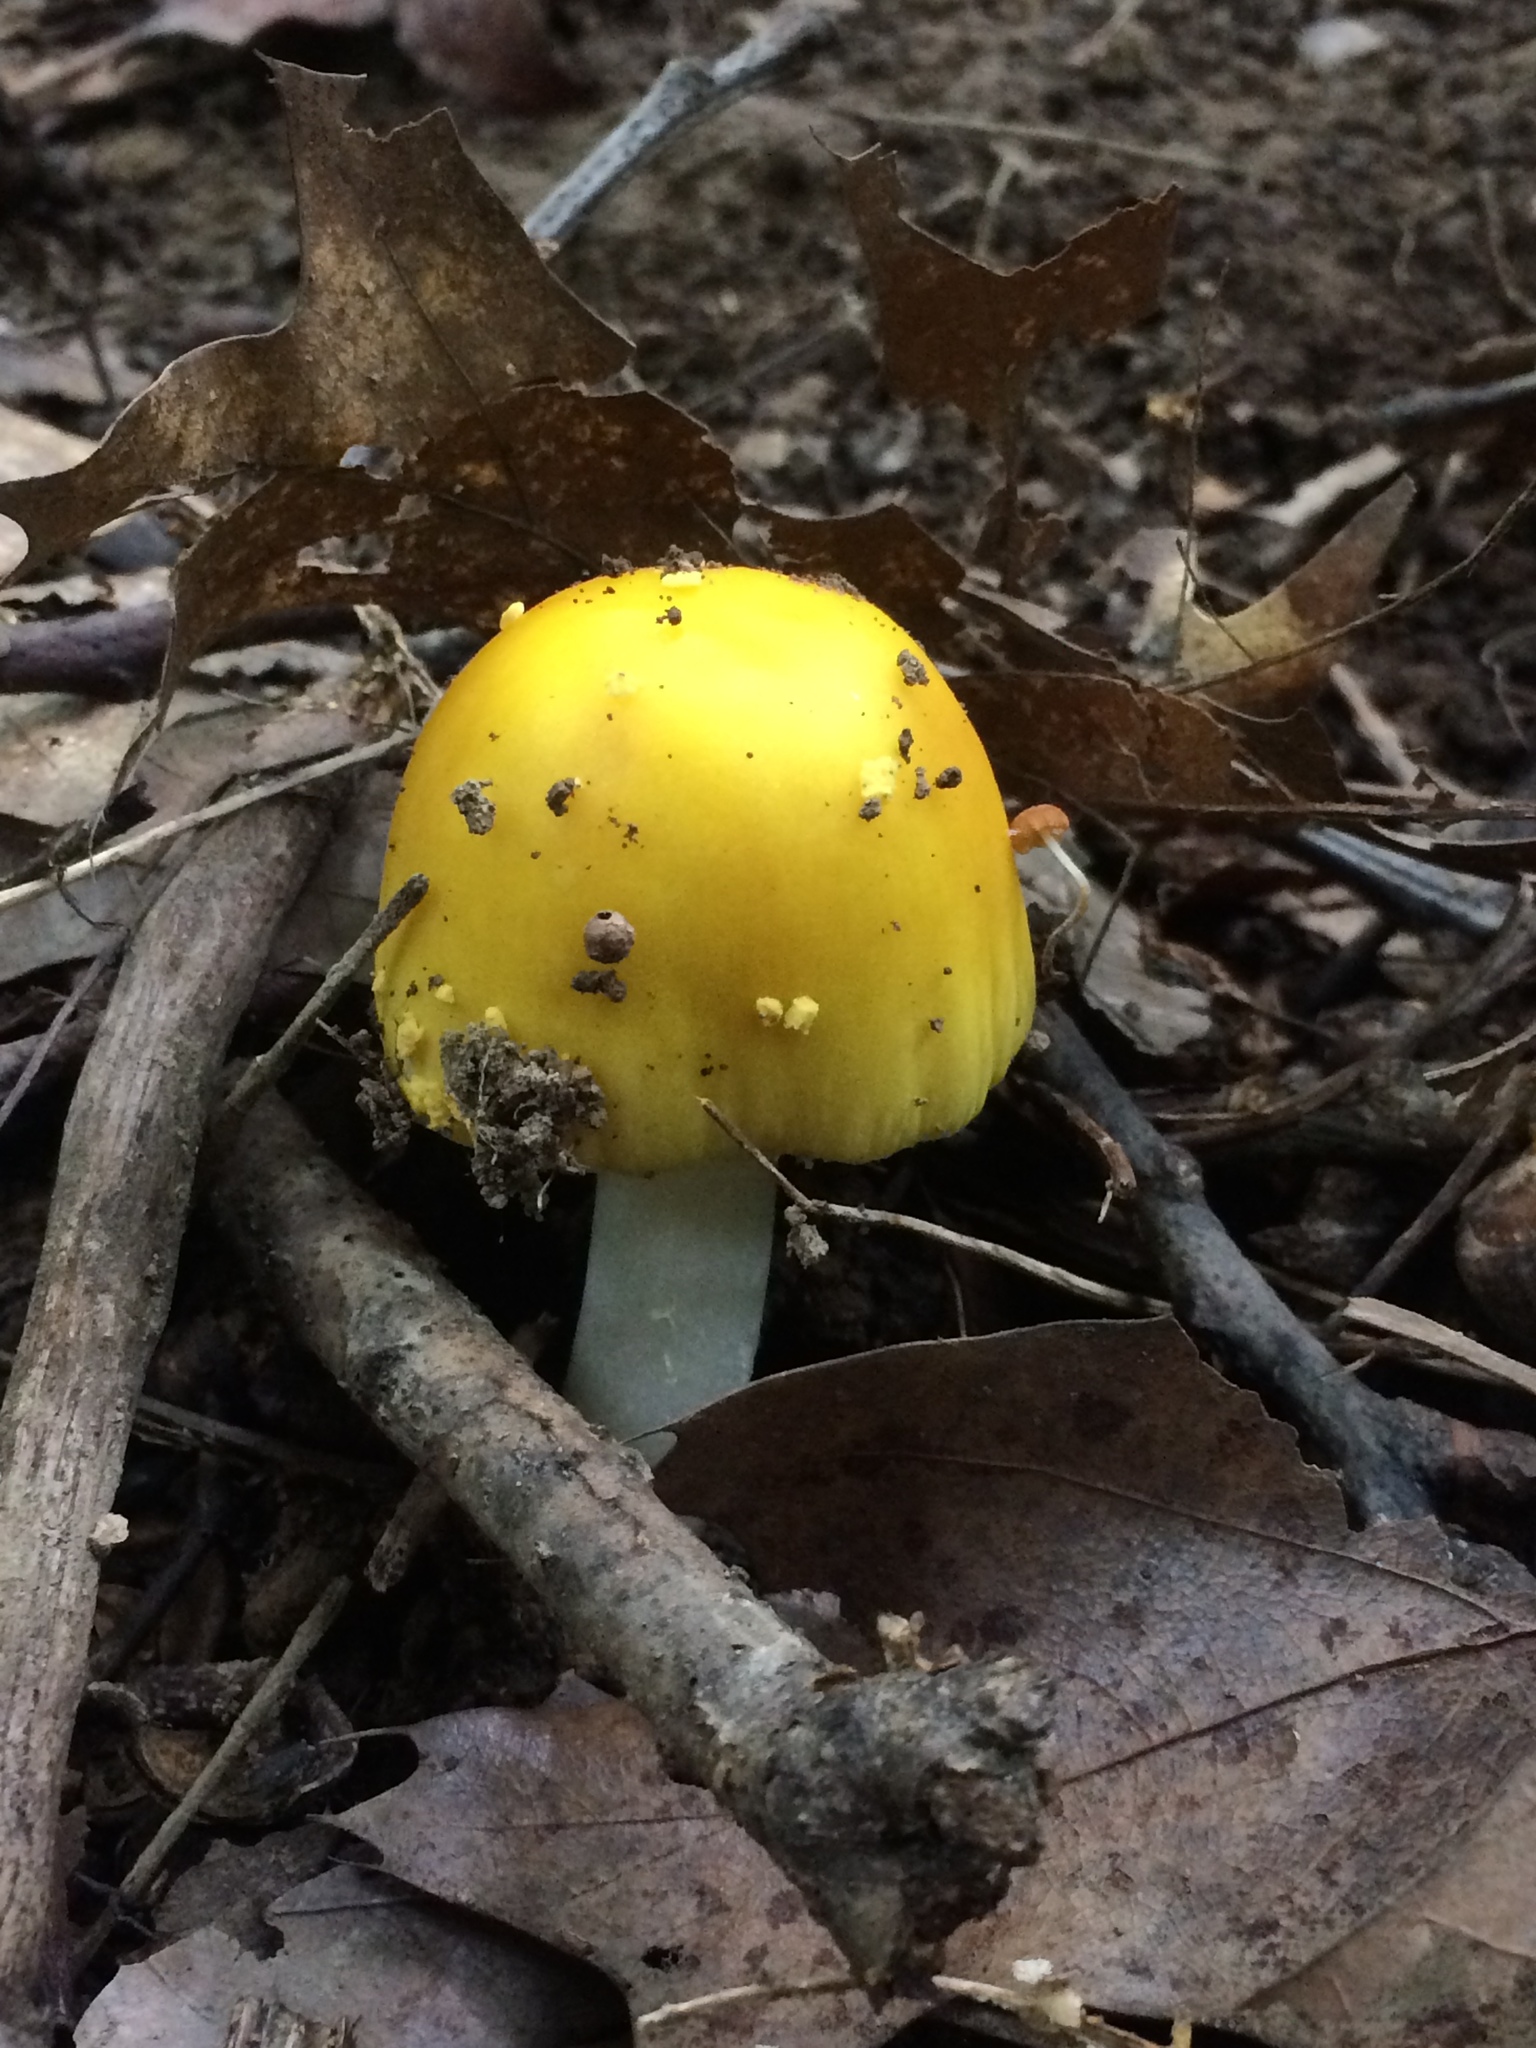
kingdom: Fungi
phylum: Basidiomycota
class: Agaricomycetes
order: Agaricales
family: Amanitaceae
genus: Amanita
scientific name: Amanita flavorubens
